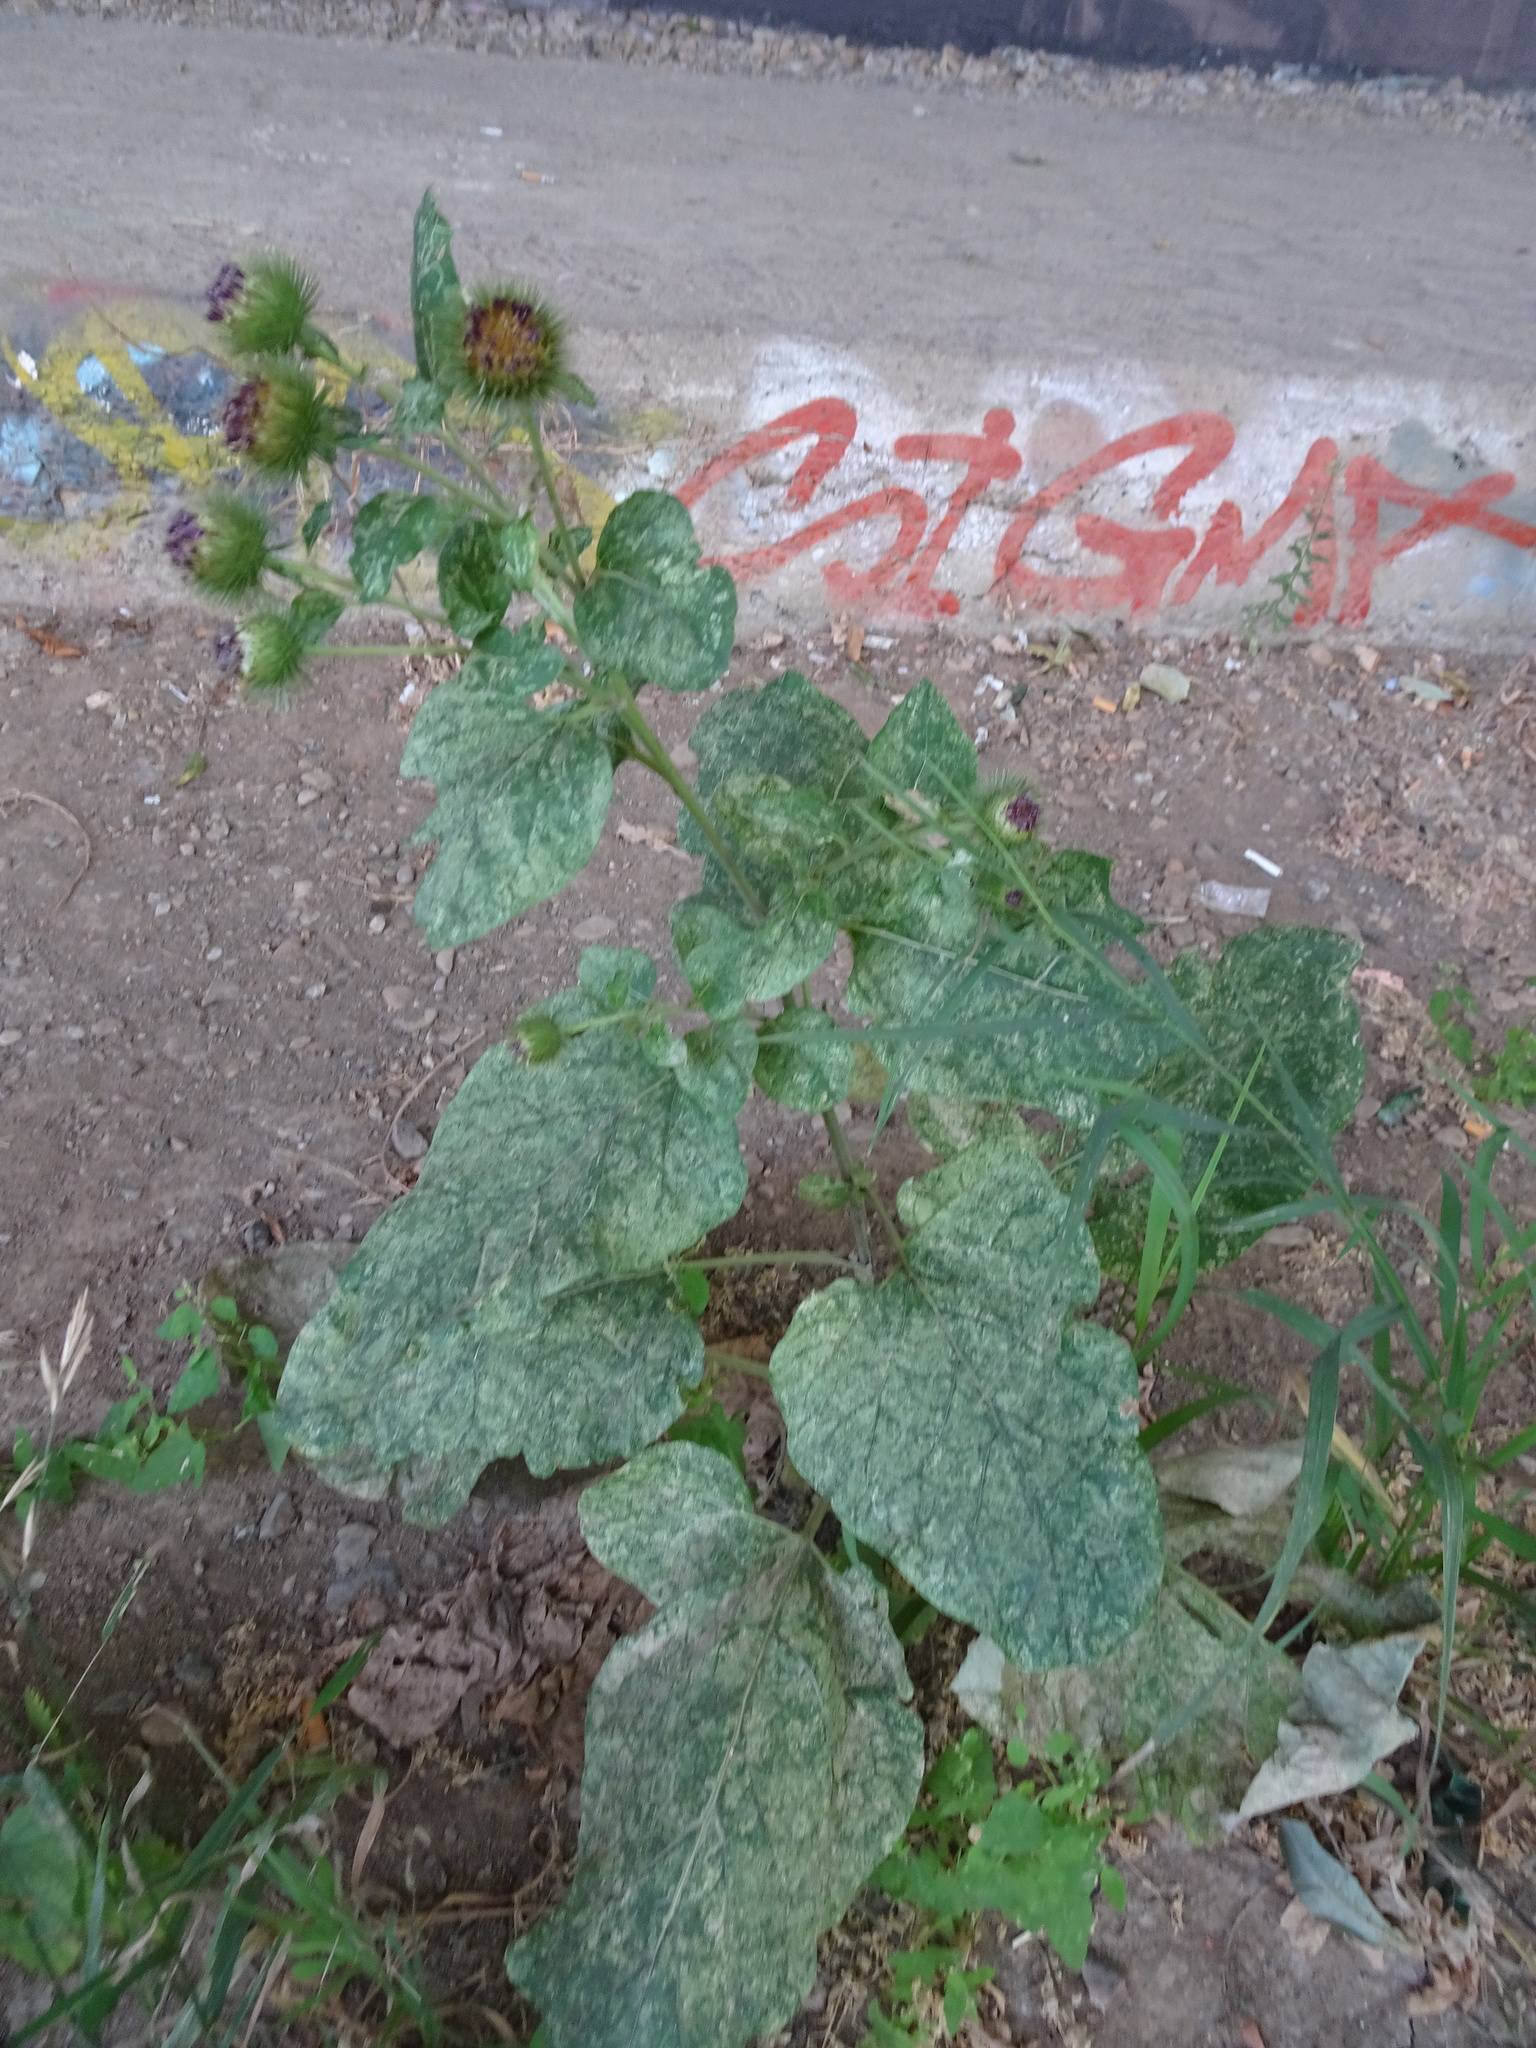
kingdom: Plantae
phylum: Tracheophyta
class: Magnoliopsida
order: Asterales
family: Asteraceae
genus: Arctium
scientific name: Arctium lappa
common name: Greater burdock
